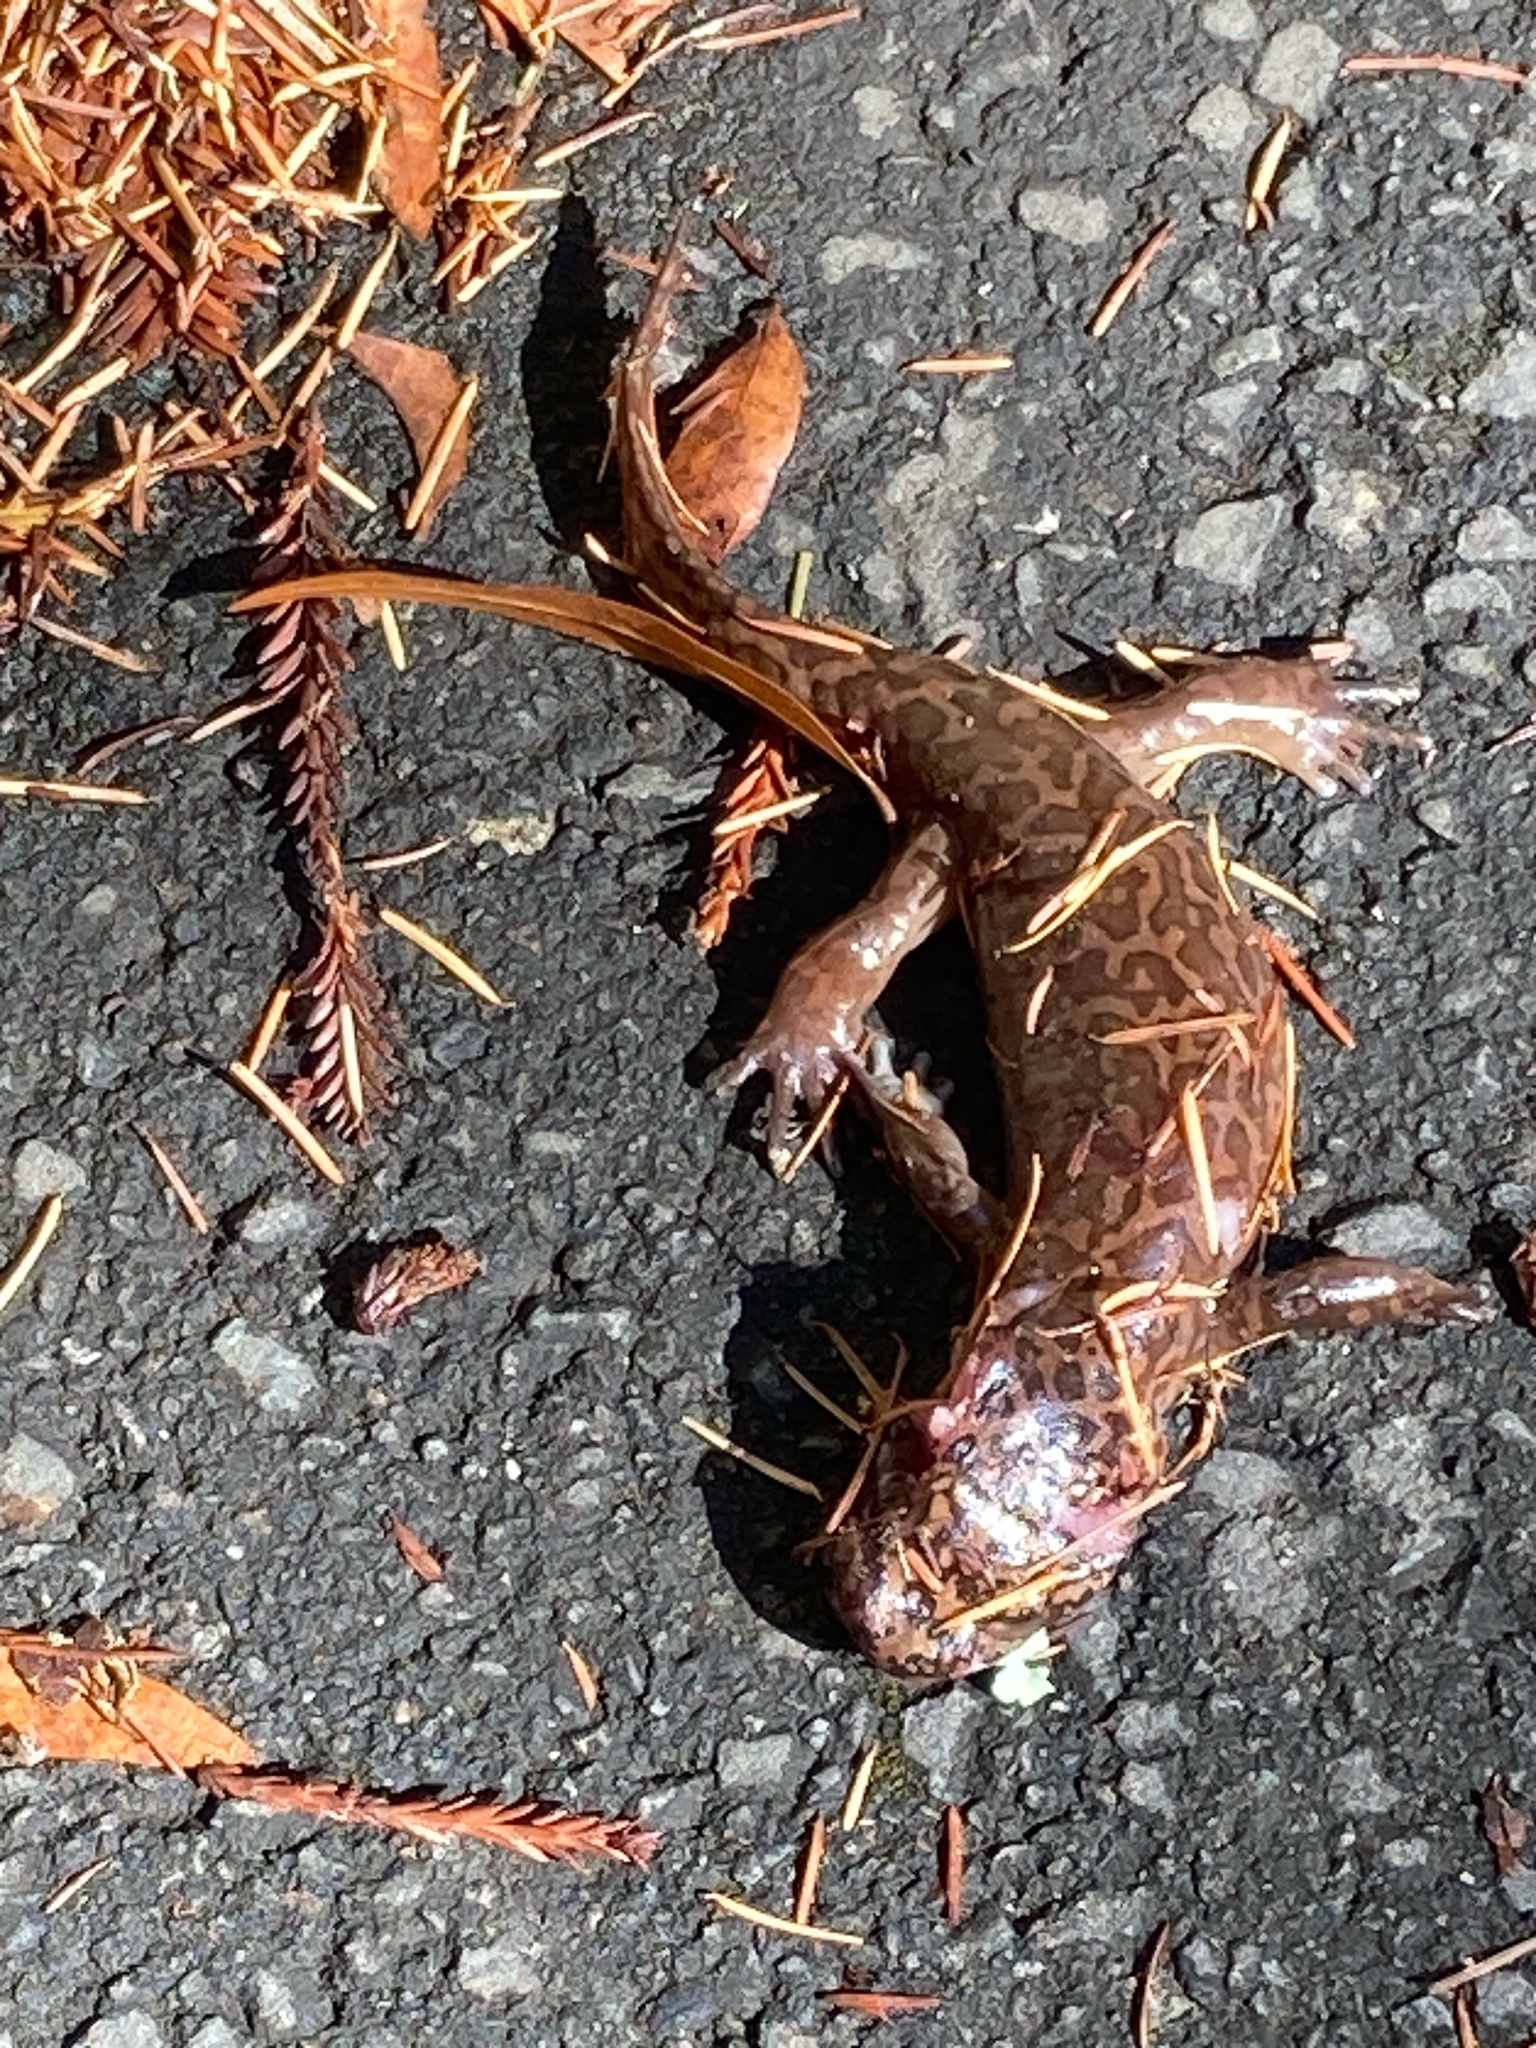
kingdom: Animalia
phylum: Chordata
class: Amphibia
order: Caudata
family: Ambystomatidae
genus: Dicamptodon
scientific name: Dicamptodon ensatus
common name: California giant salamander
